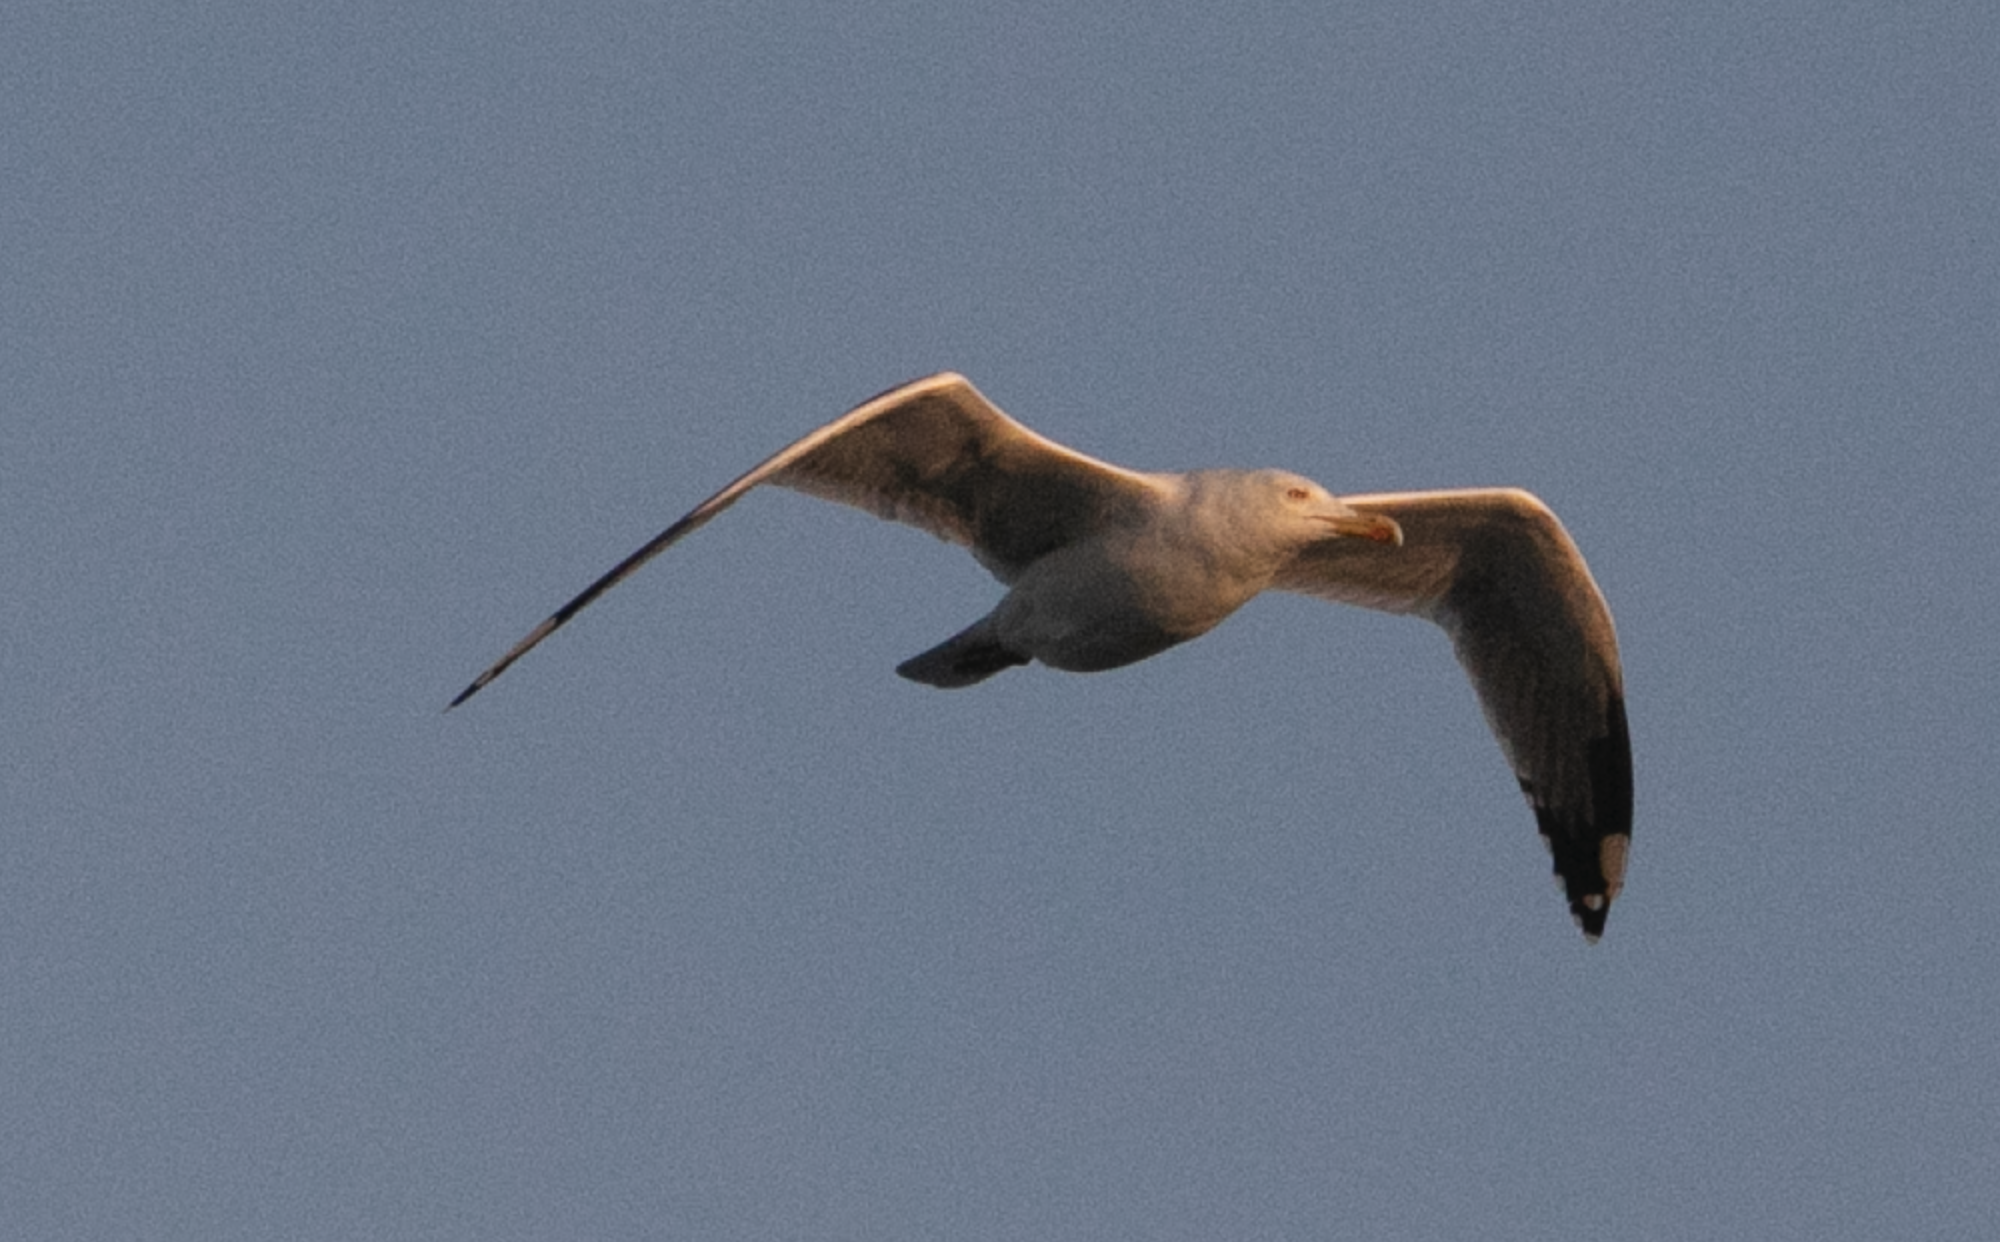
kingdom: Animalia
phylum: Chordata
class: Aves
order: Charadriiformes
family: Laridae
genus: Larus
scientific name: Larus michahellis
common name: Yellow-legged gull
